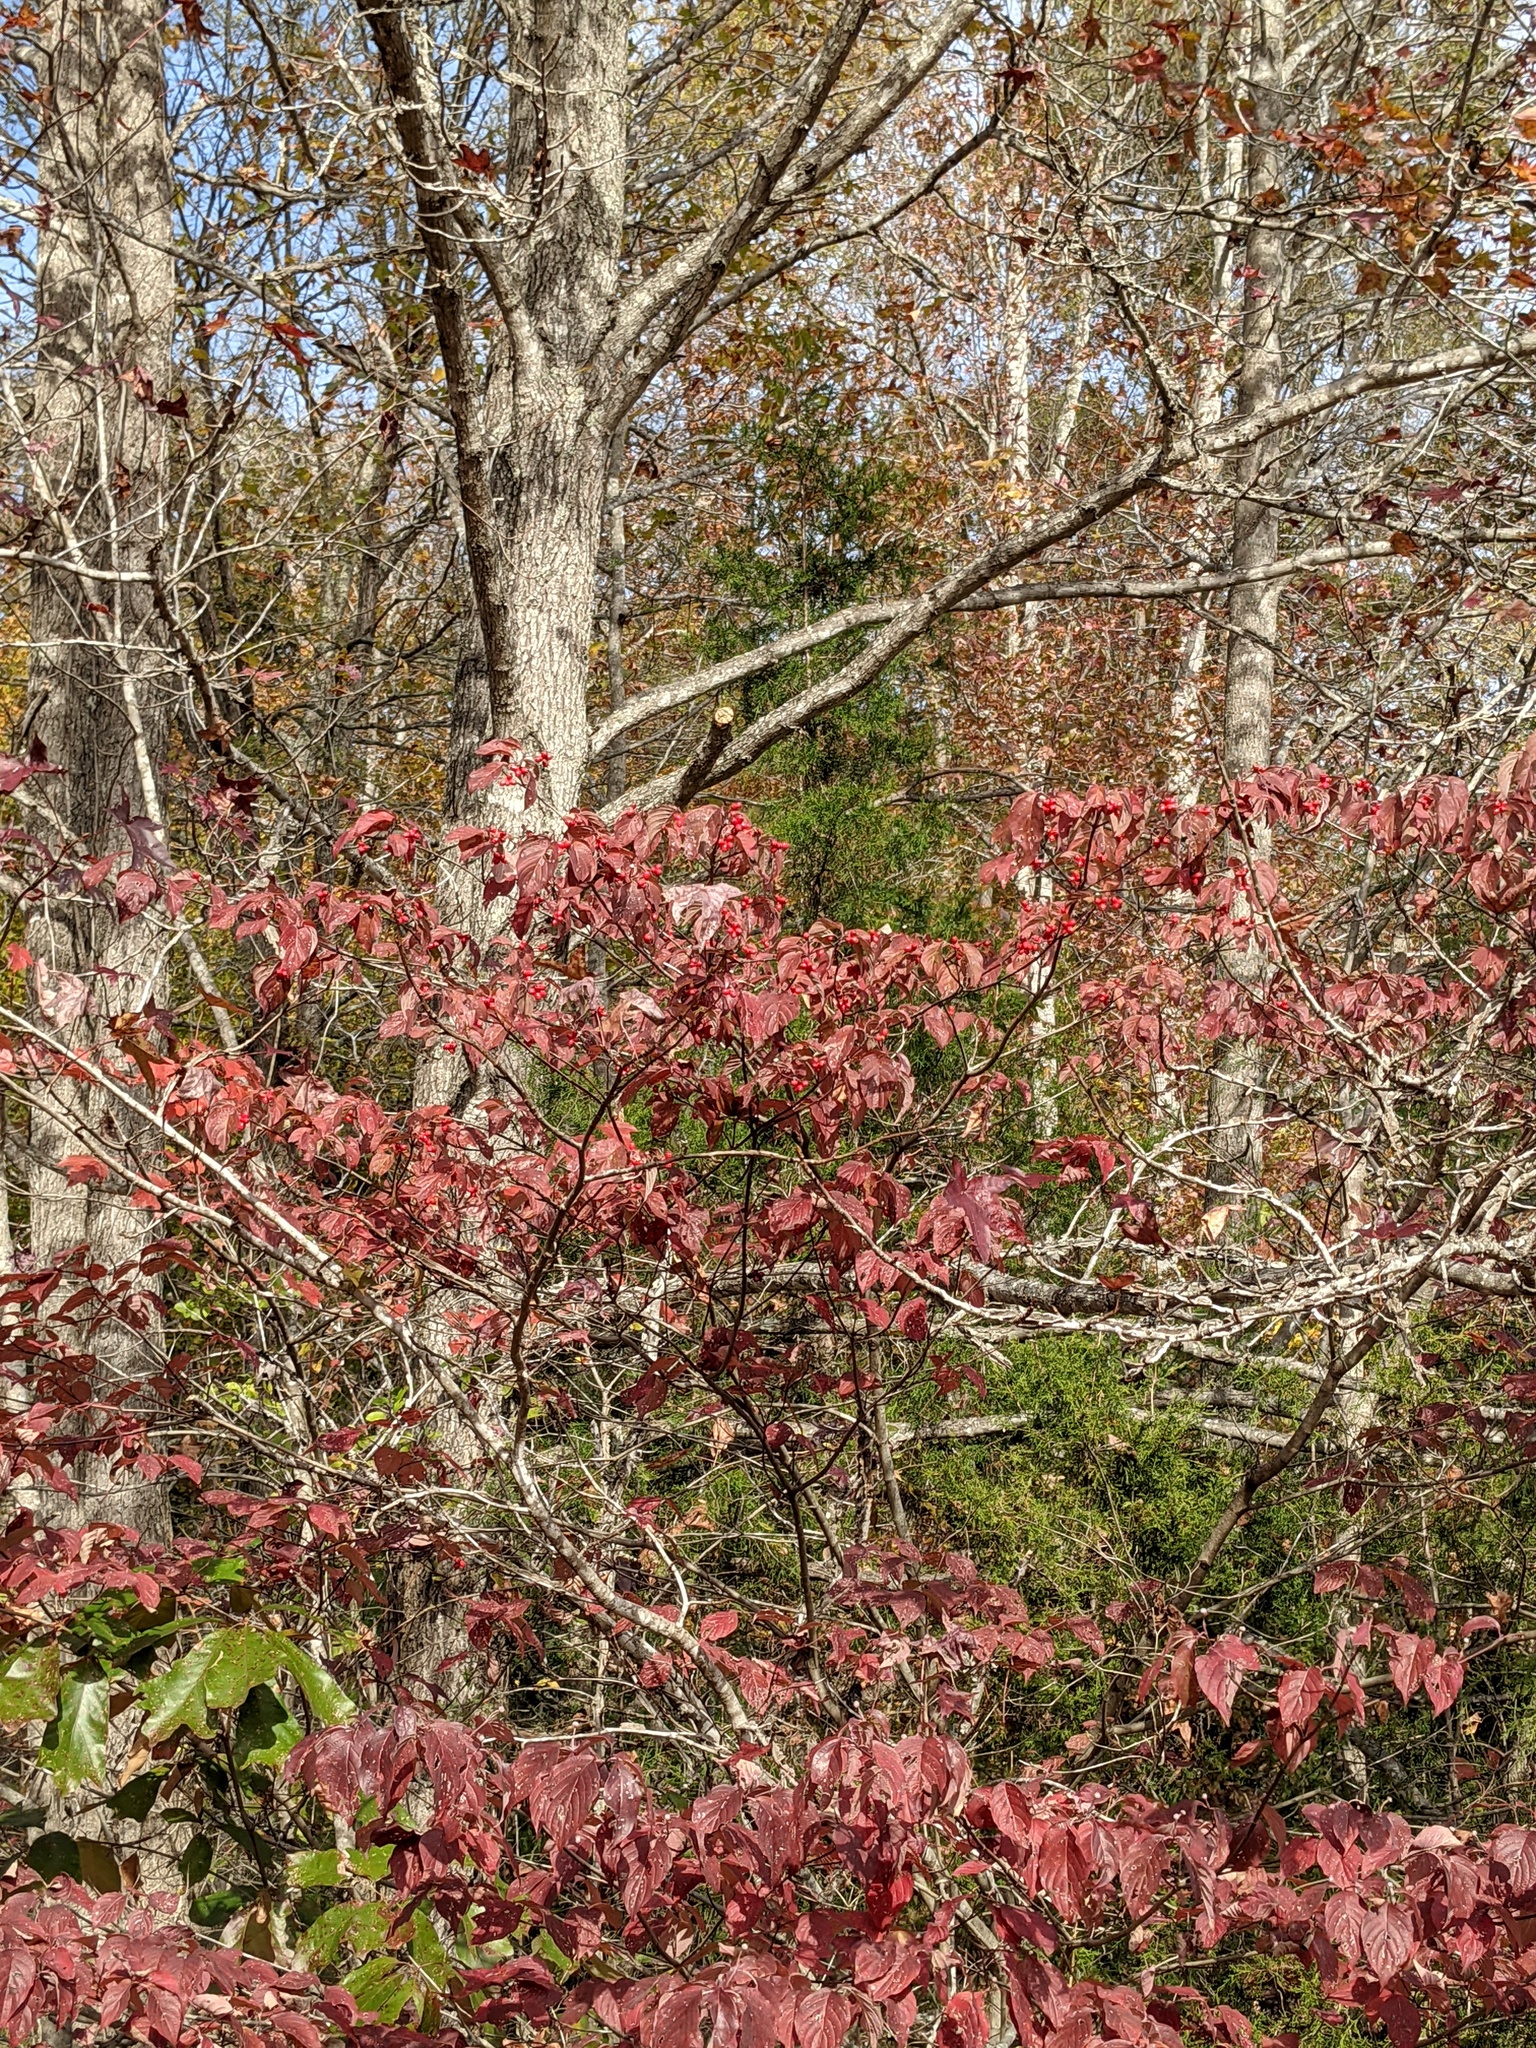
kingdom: Plantae
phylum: Tracheophyta
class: Magnoliopsida
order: Cornales
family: Cornaceae
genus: Cornus
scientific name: Cornus florida
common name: Flowering dogwood
